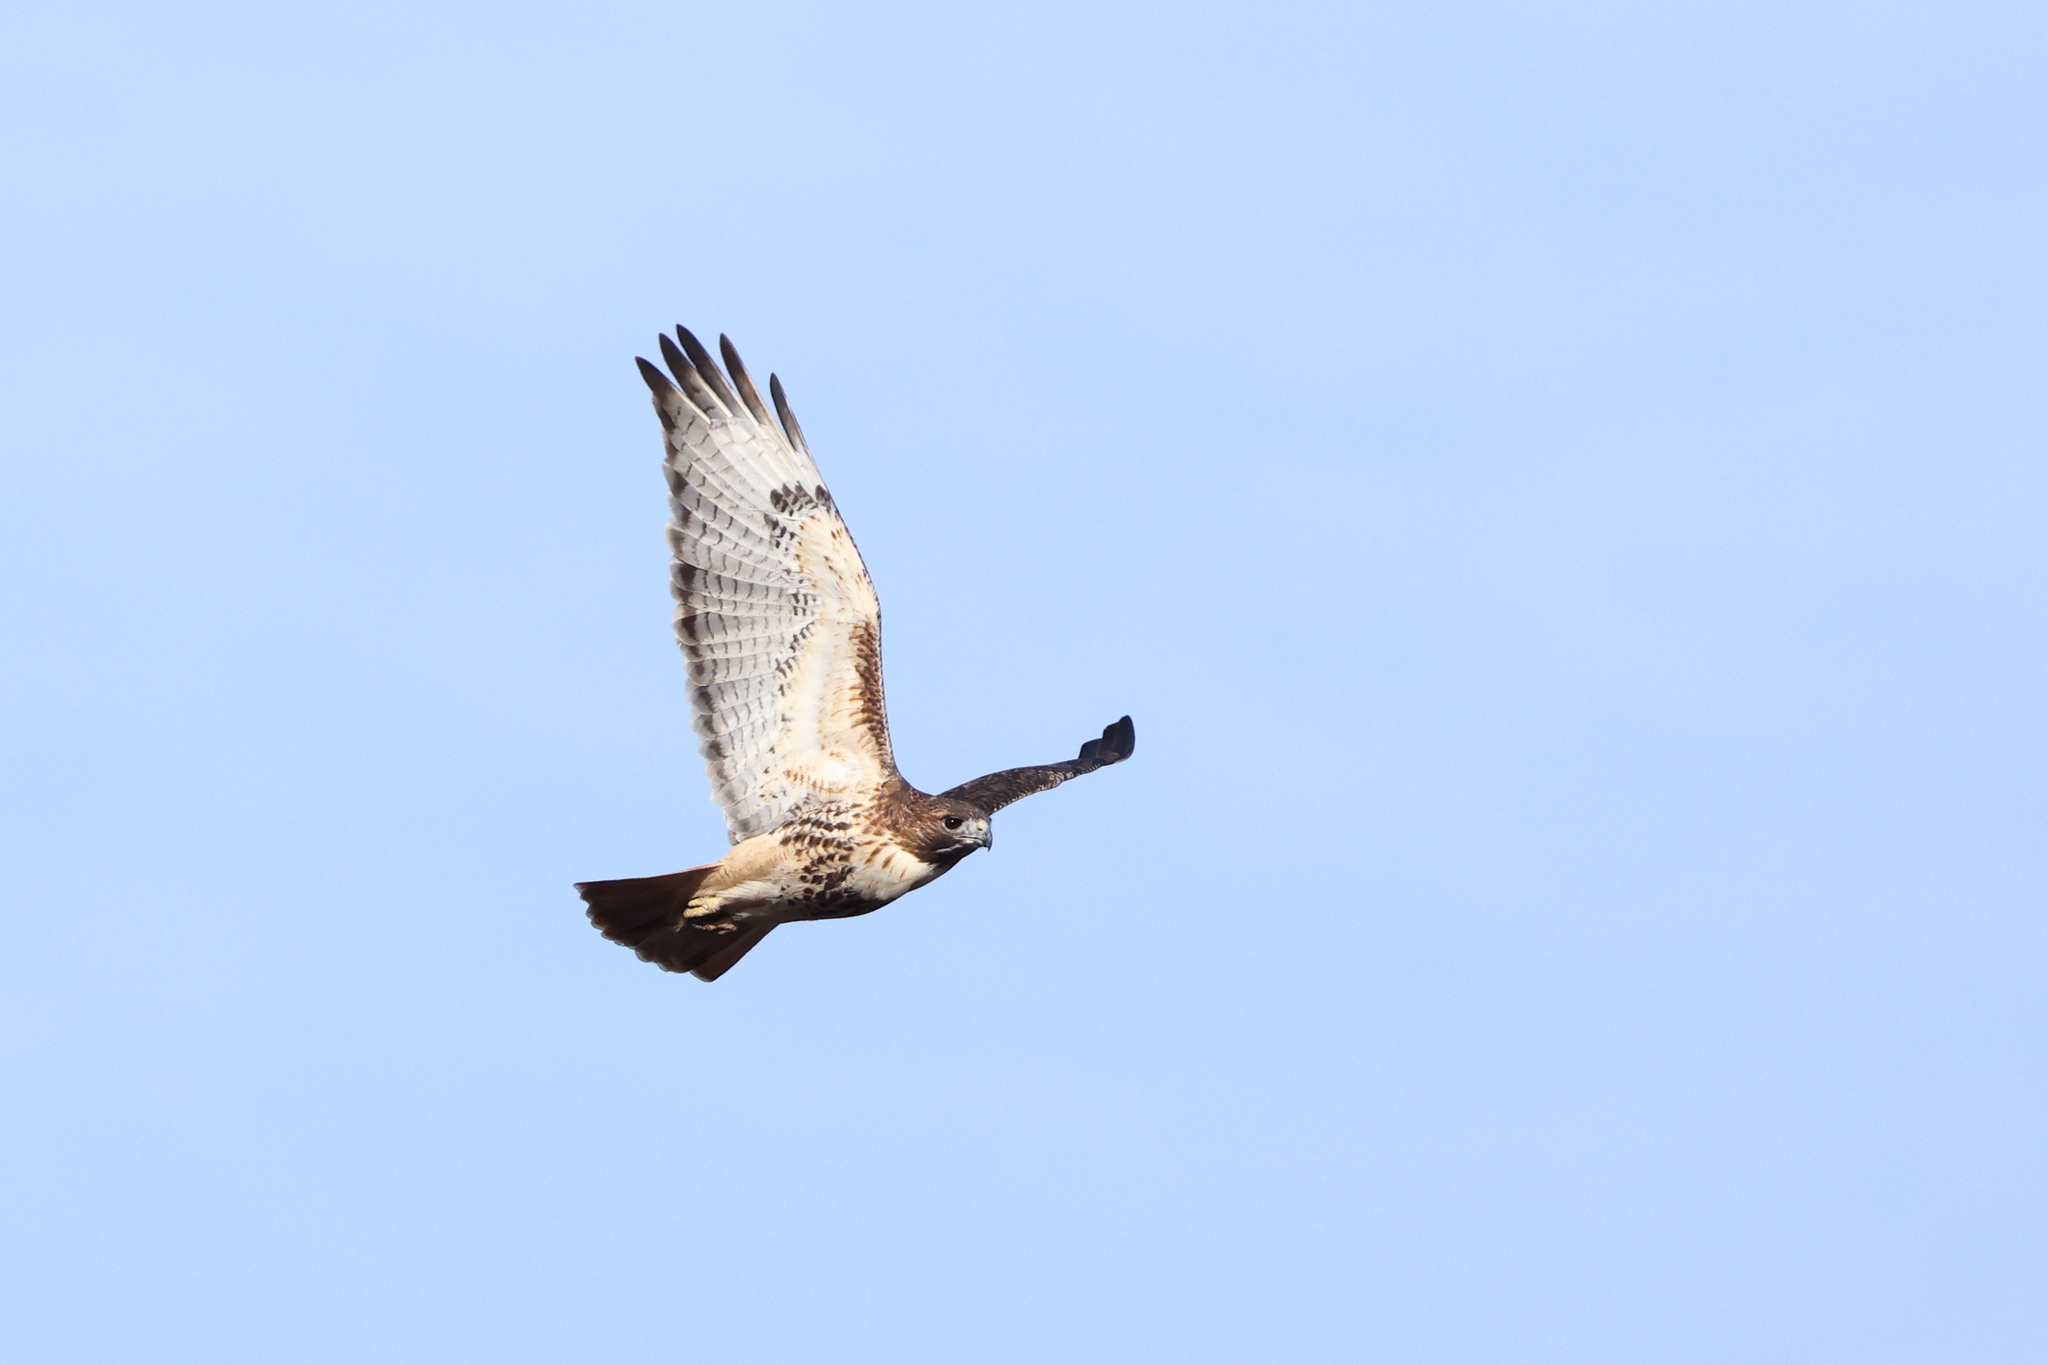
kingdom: Animalia
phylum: Chordata
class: Aves
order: Accipitriformes
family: Accipitridae
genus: Buteo
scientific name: Buteo jamaicensis
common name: Red-tailed hawk
